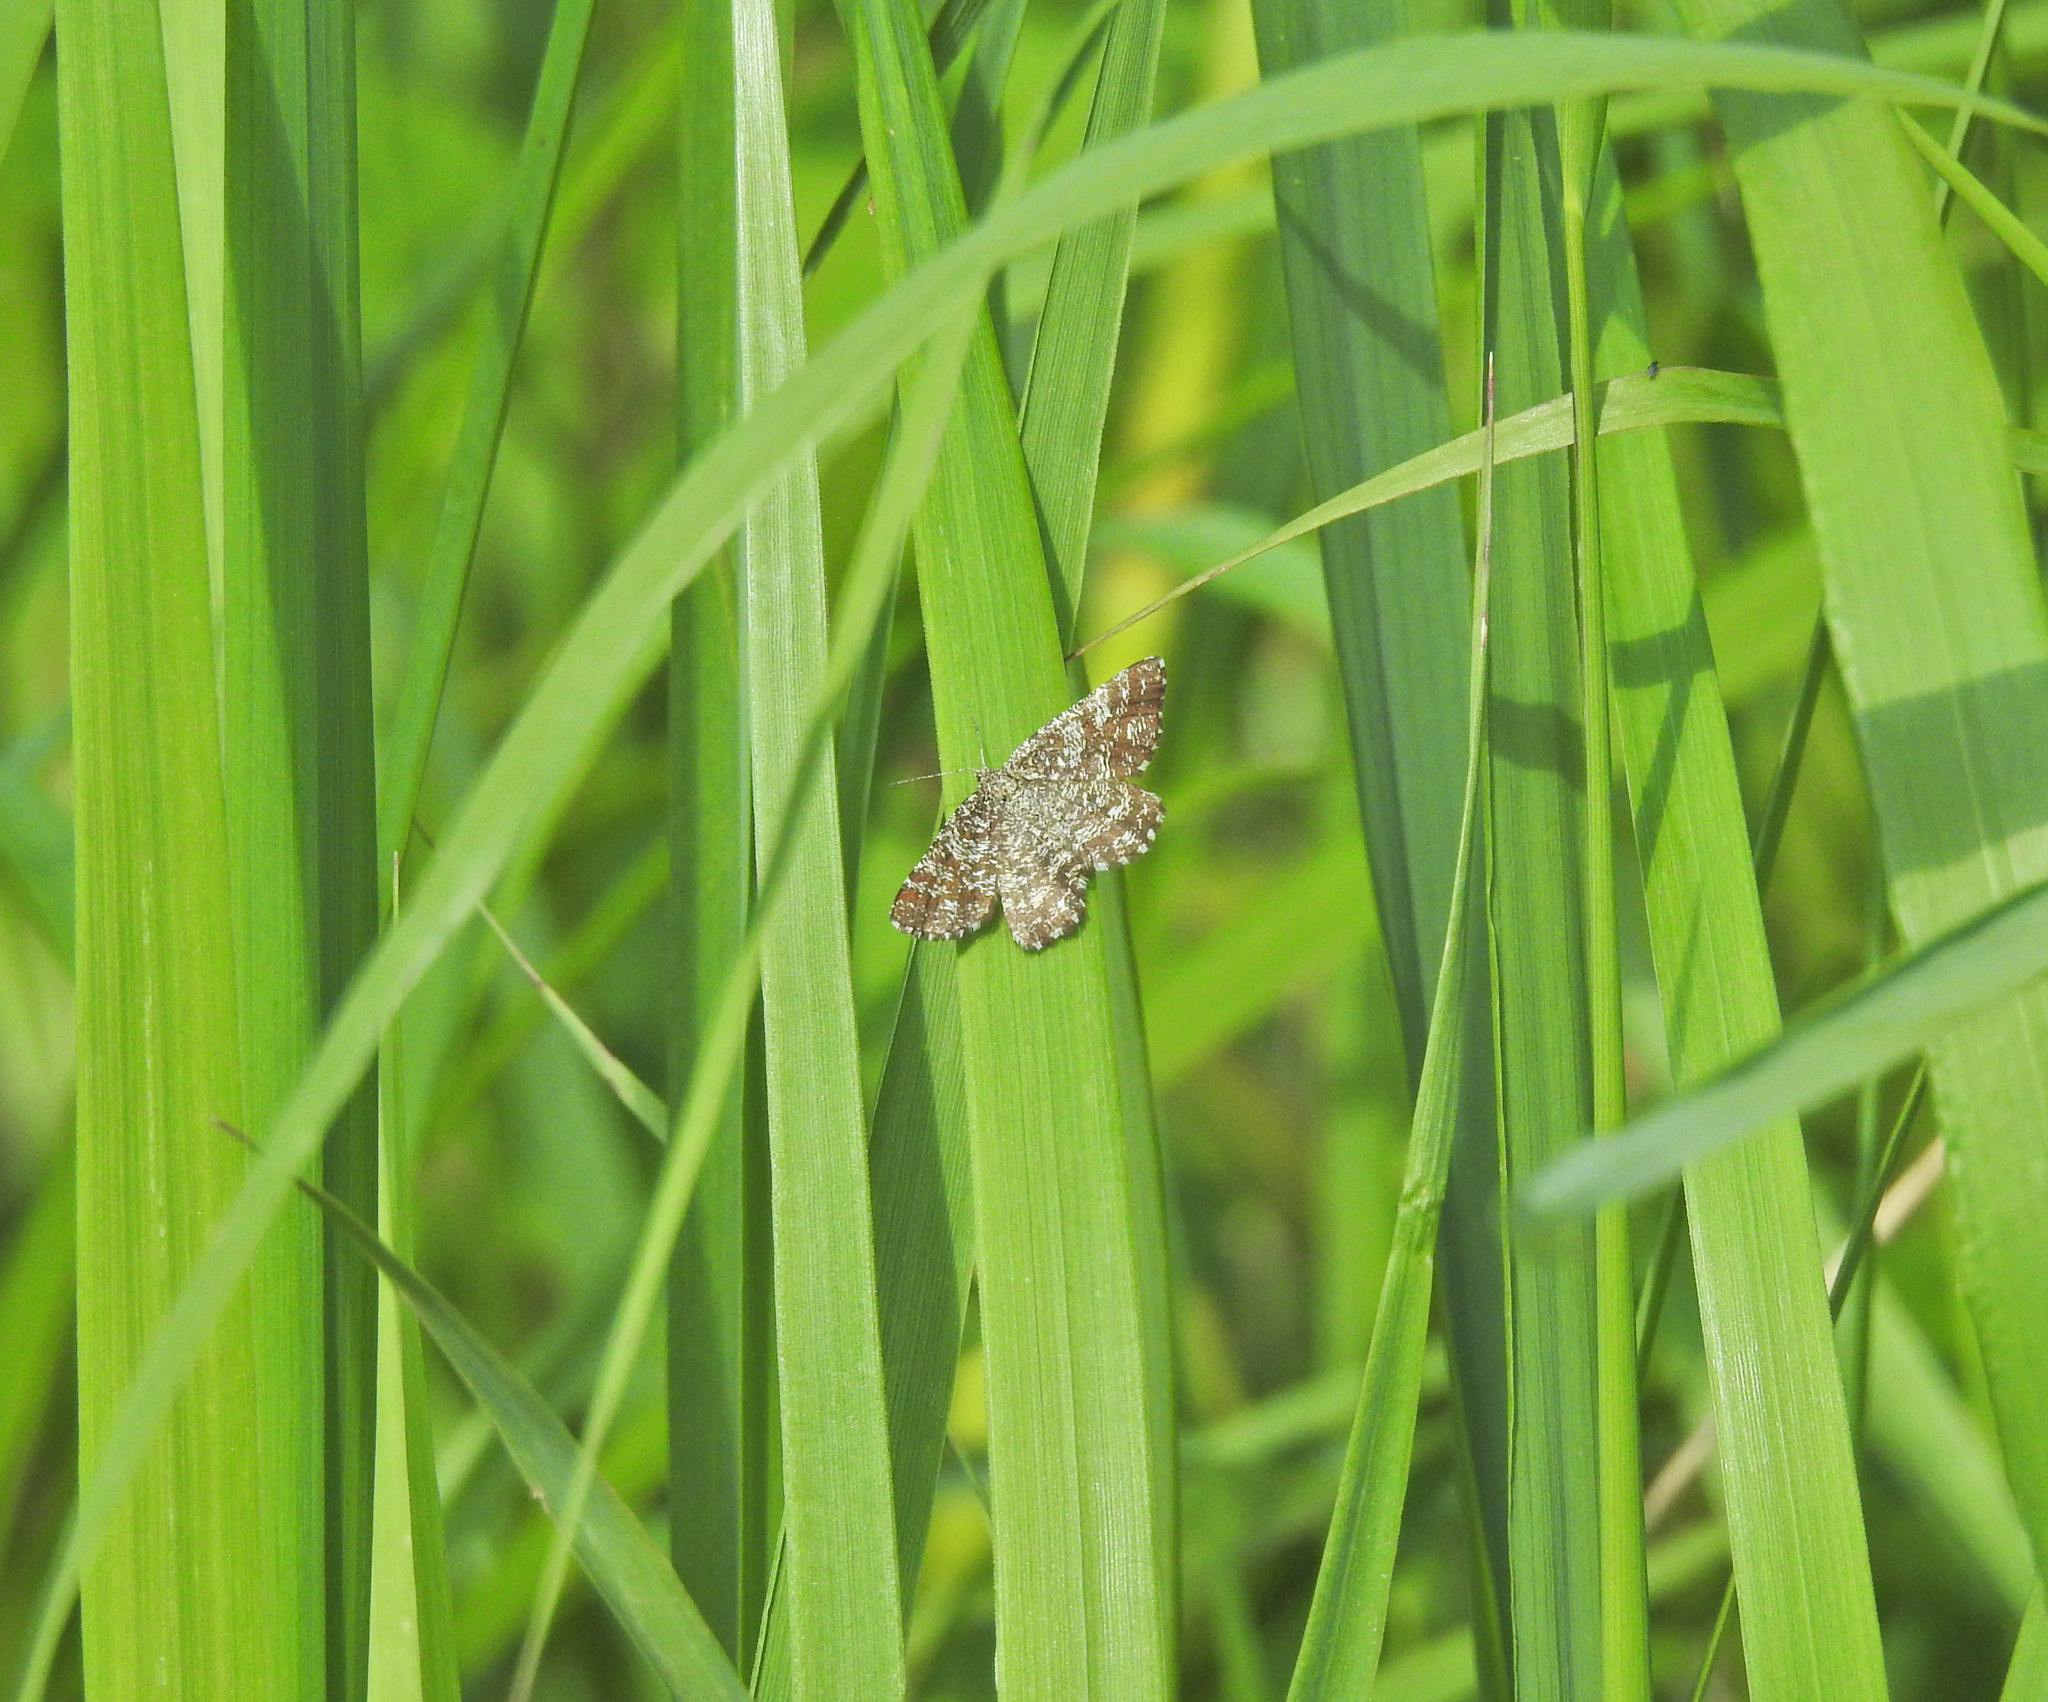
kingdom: Animalia
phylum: Arthropoda
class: Insecta
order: Lepidoptera
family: Geometridae
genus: Ematurga
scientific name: Ematurga atomaria
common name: Common heath
